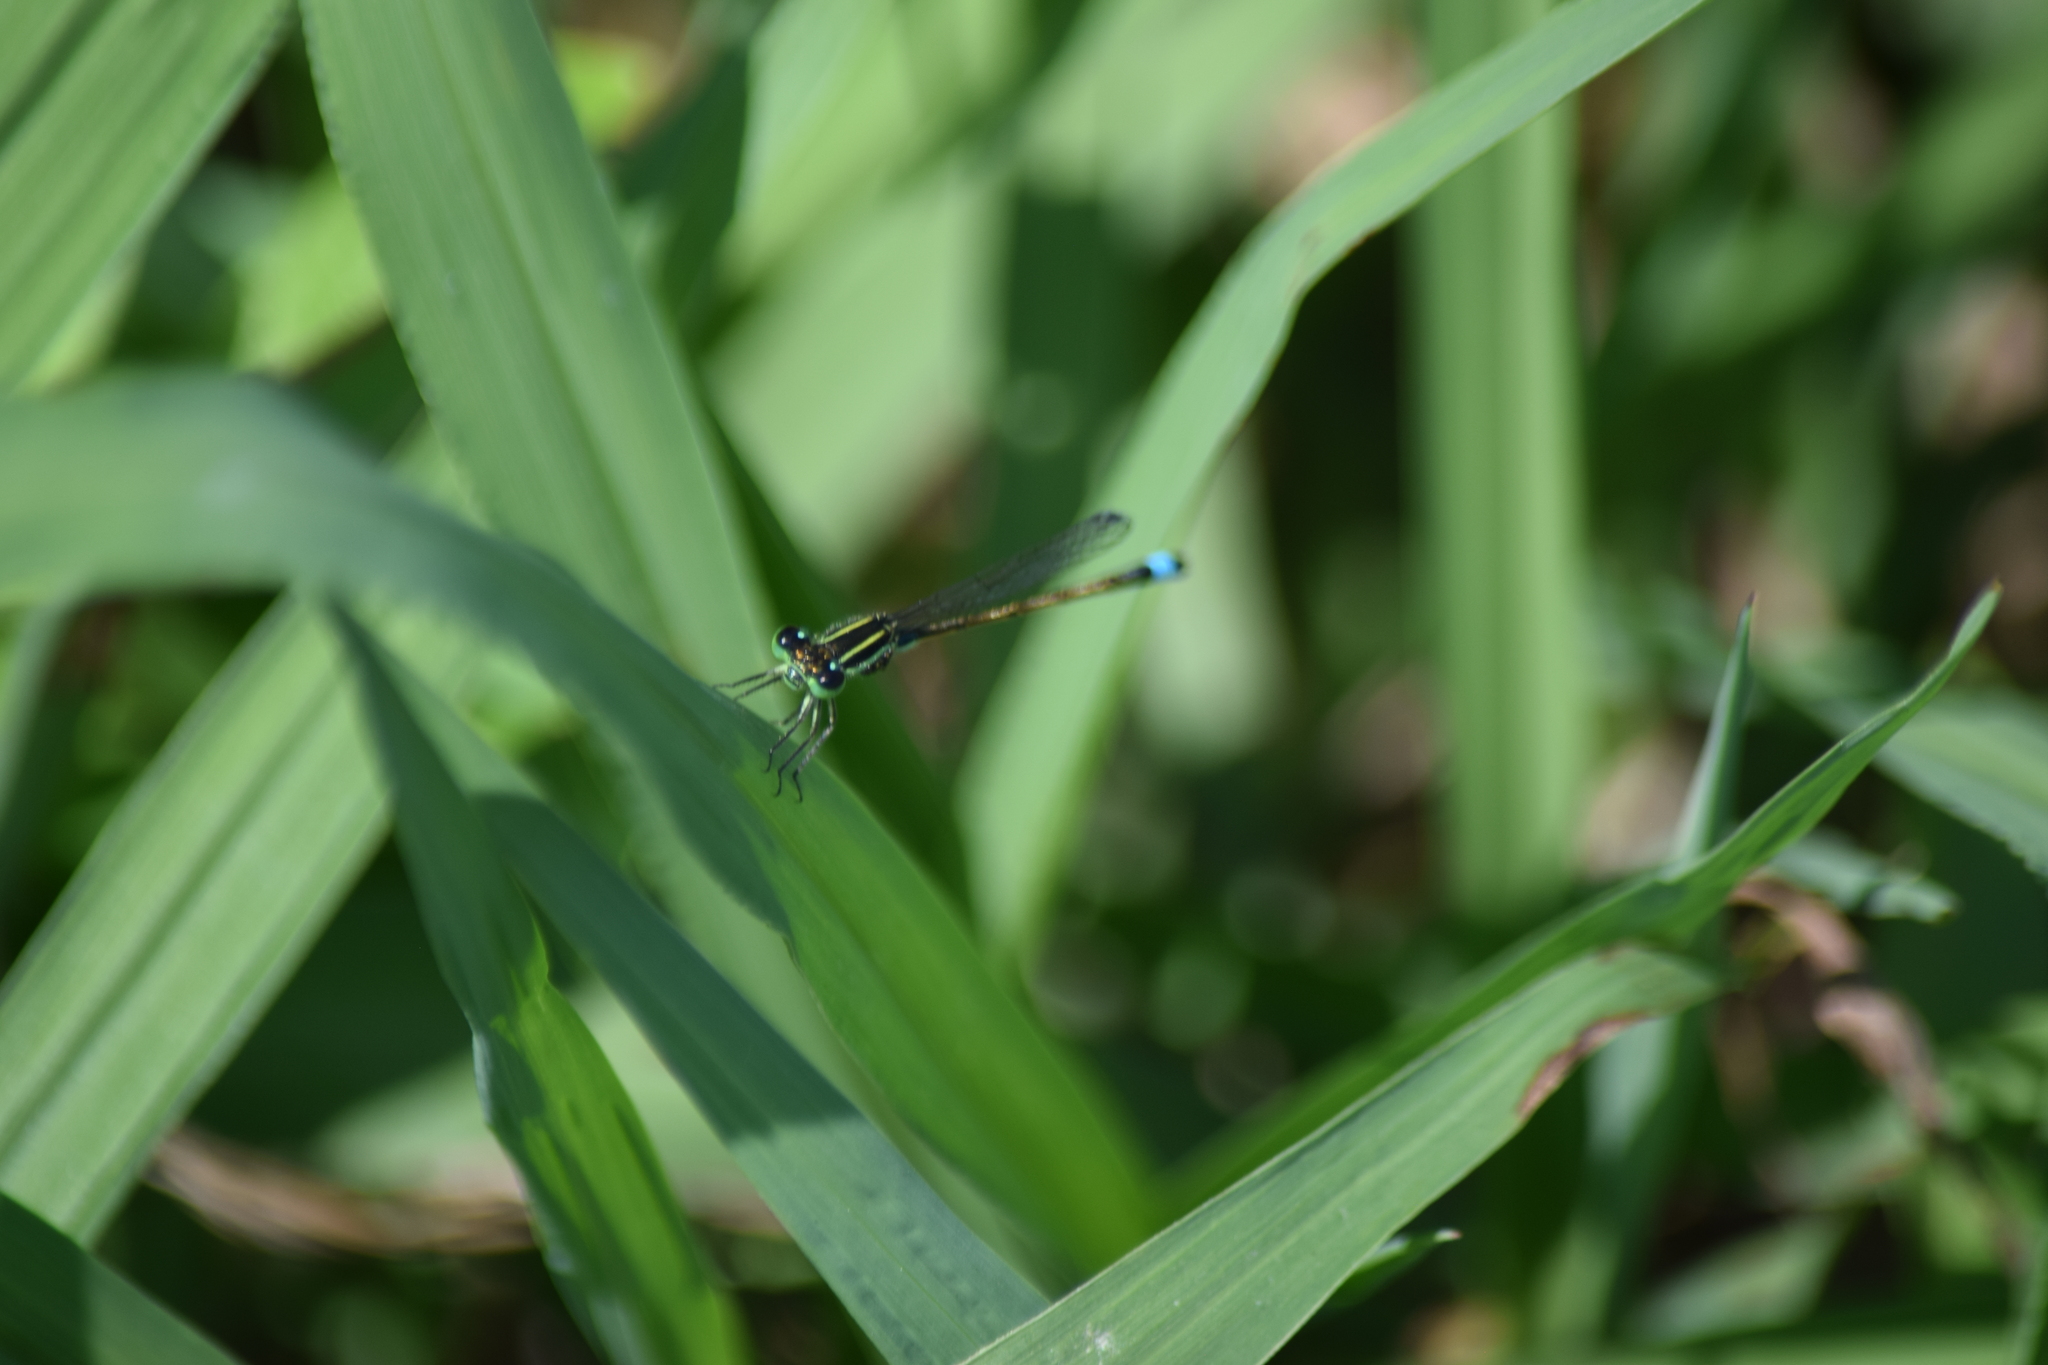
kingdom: Animalia
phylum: Arthropoda
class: Insecta
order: Odonata
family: Coenagrionidae
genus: Ischnura
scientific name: Ischnura ramburii
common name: Rambur's forktail
